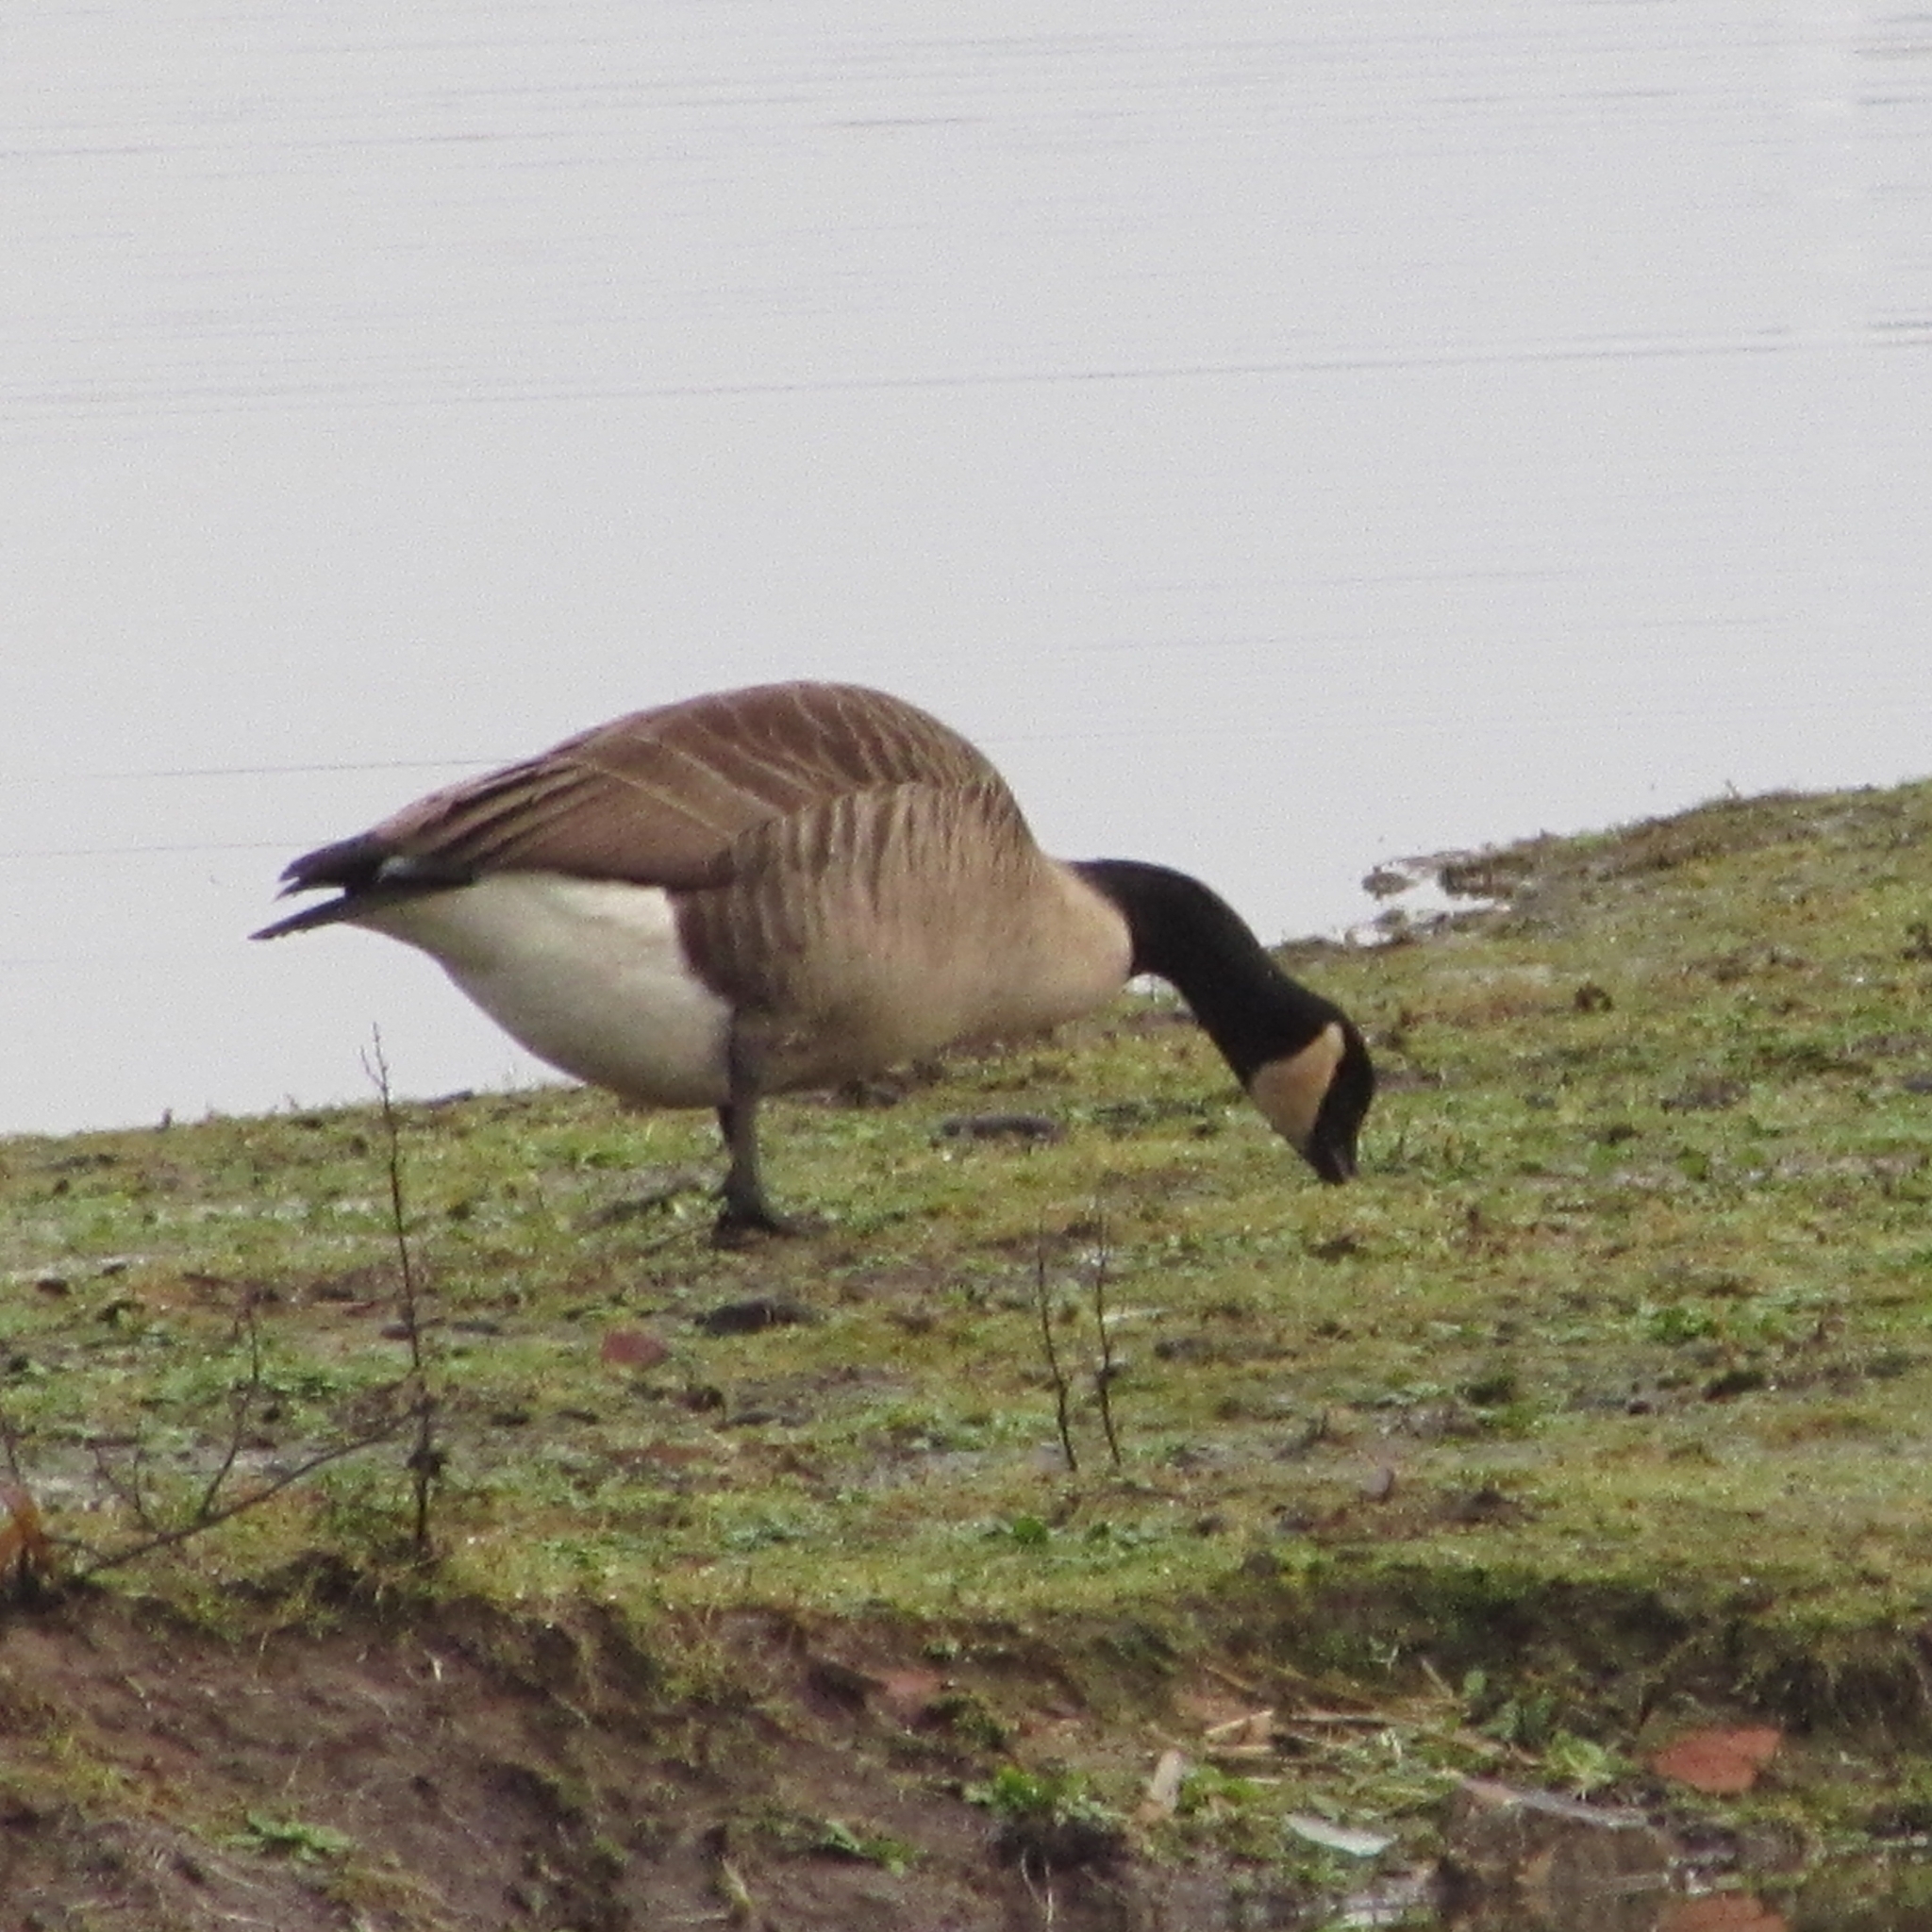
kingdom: Animalia
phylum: Chordata
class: Aves
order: Anseriformes
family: Anatidae
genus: Branta
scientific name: Branta canadensis
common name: Canada goose
